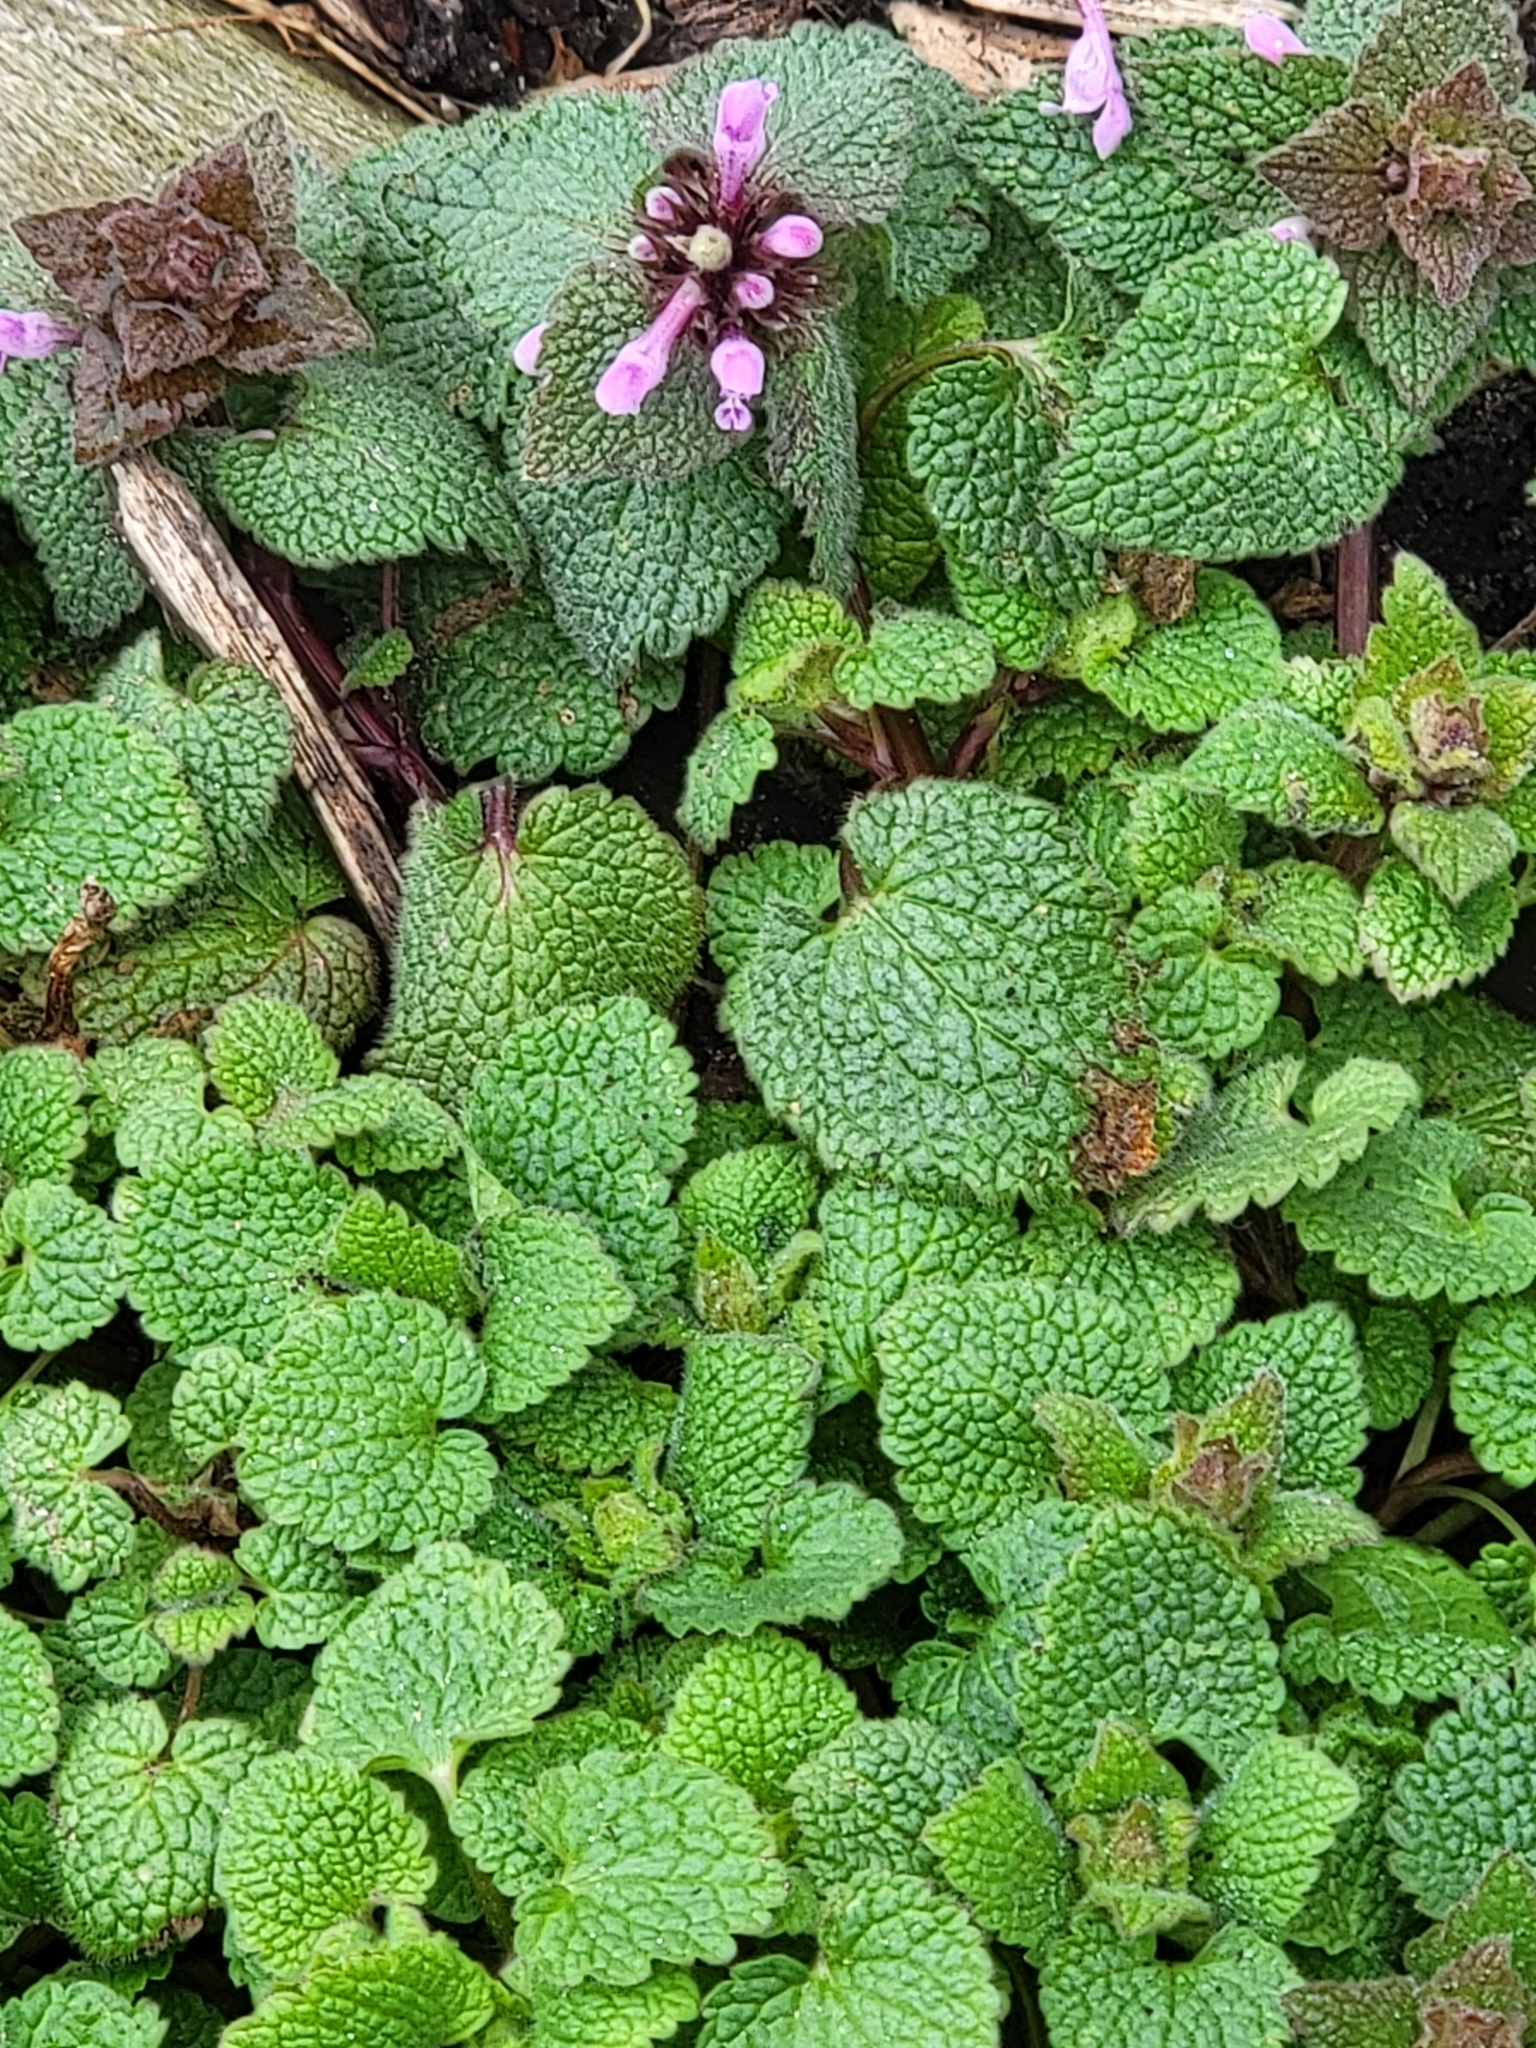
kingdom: Plantae
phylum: Tracheophyta
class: Magnoliopsida
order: Lamiales
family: Lamiaceae
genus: Lamium
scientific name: Lamium purpureum
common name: Red dead-nettle
